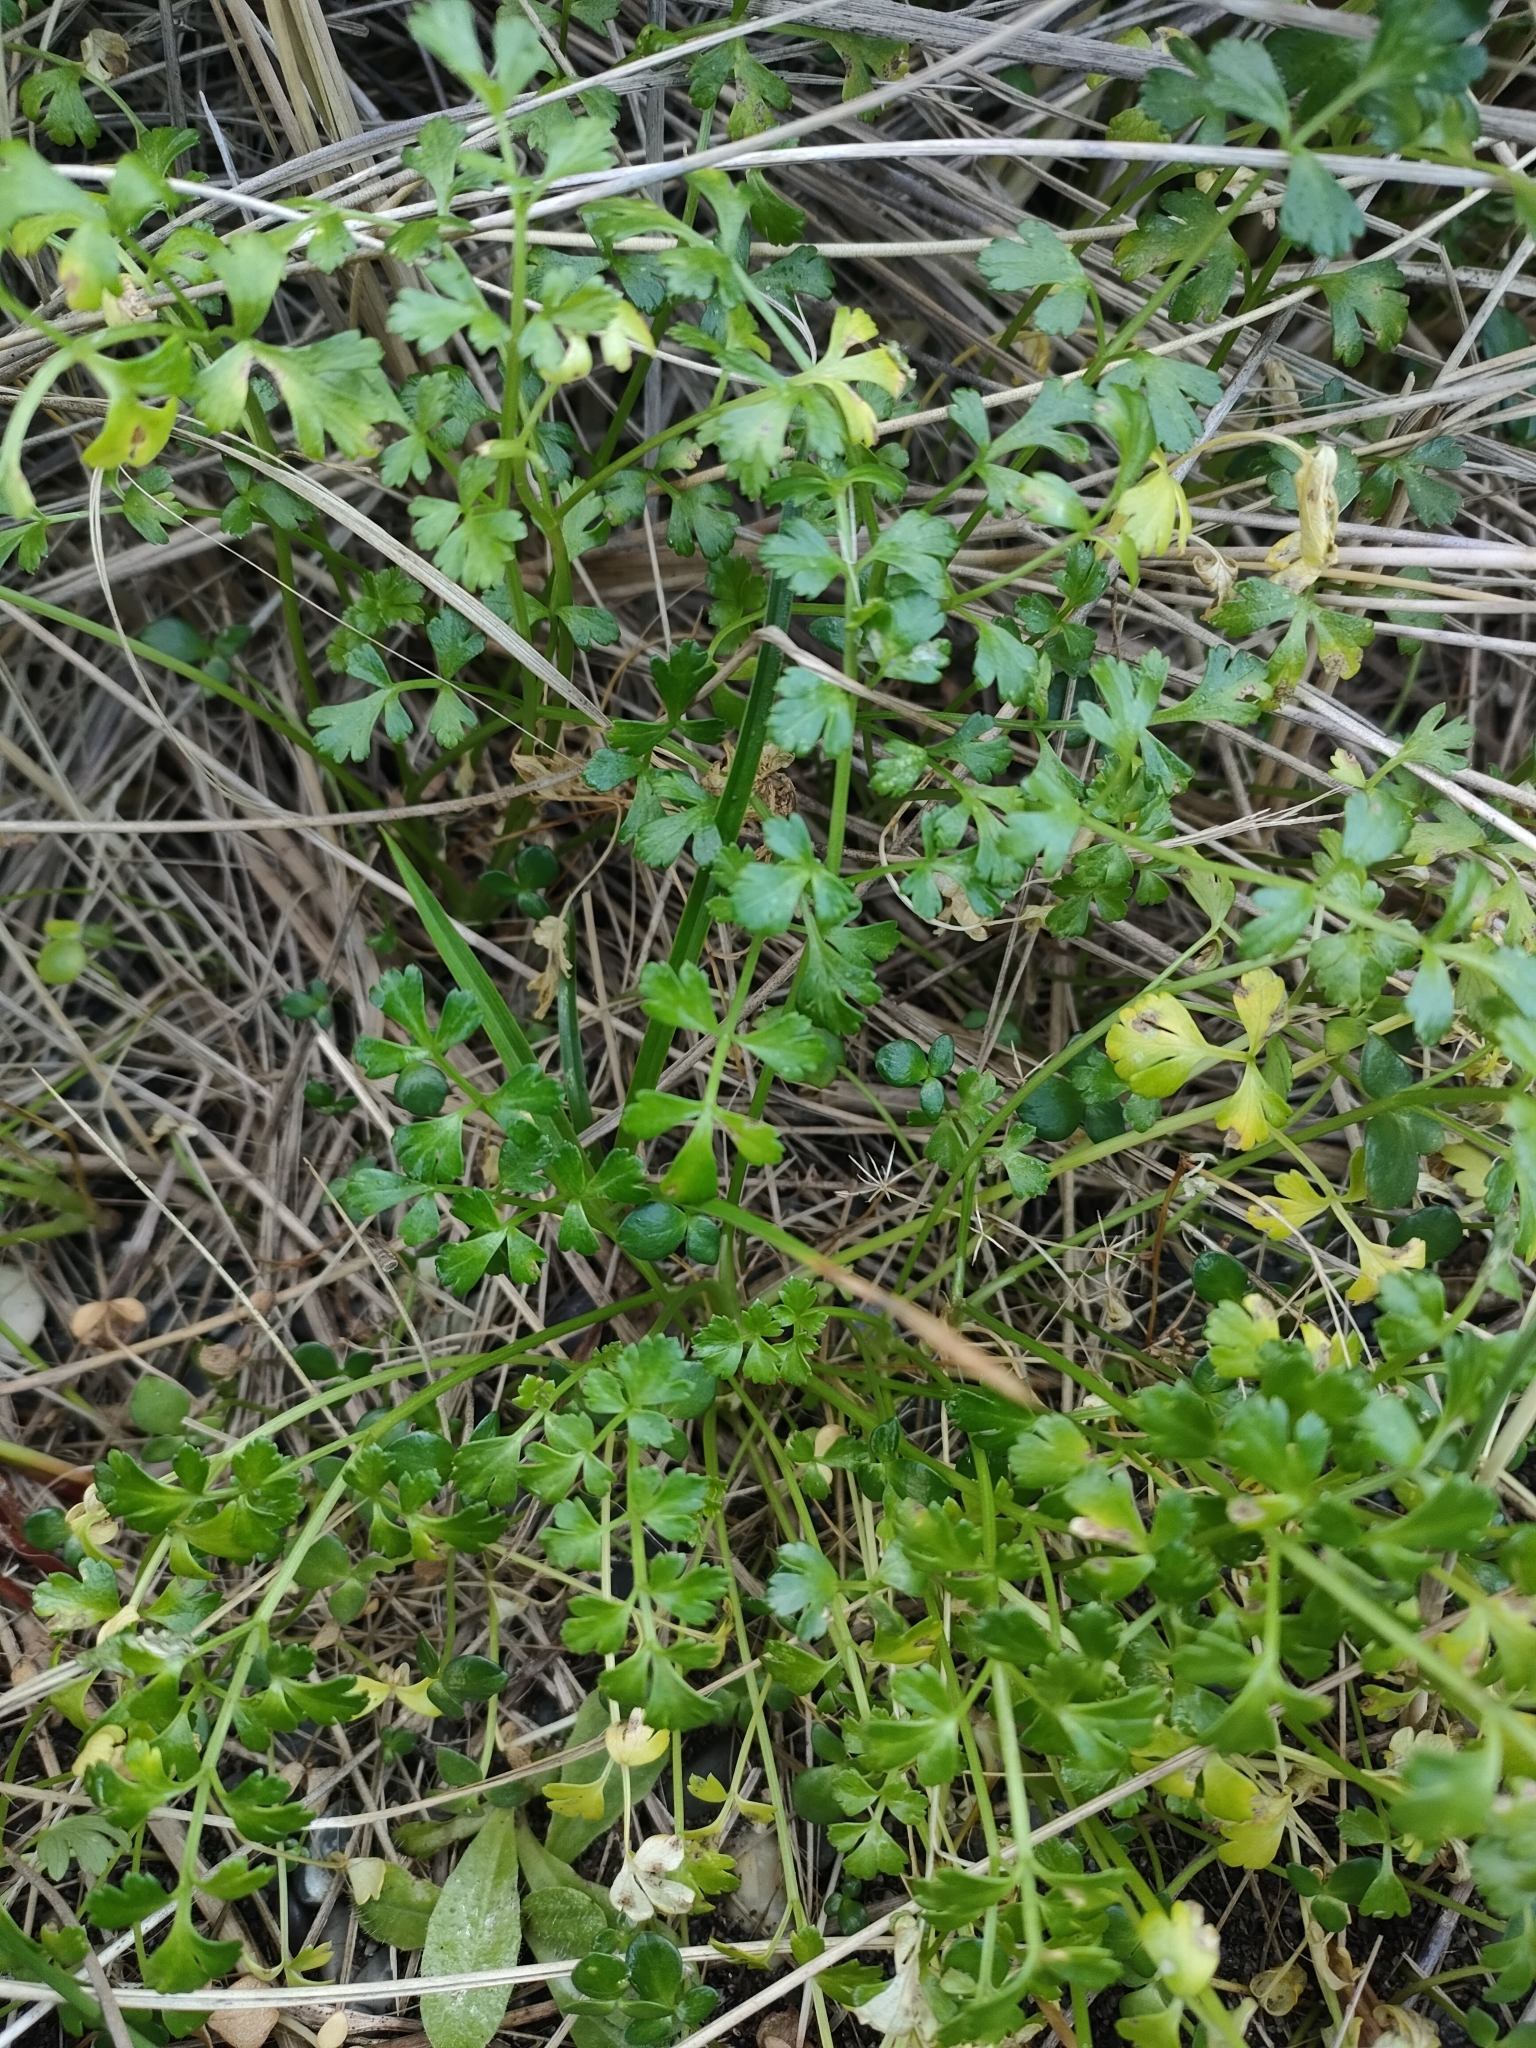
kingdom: Plantae
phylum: Tracheophyta
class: Magnoliopsida
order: Apiales
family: Apiaceae
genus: Apium
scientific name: Apium prostratum
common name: Prostrate marshwort
